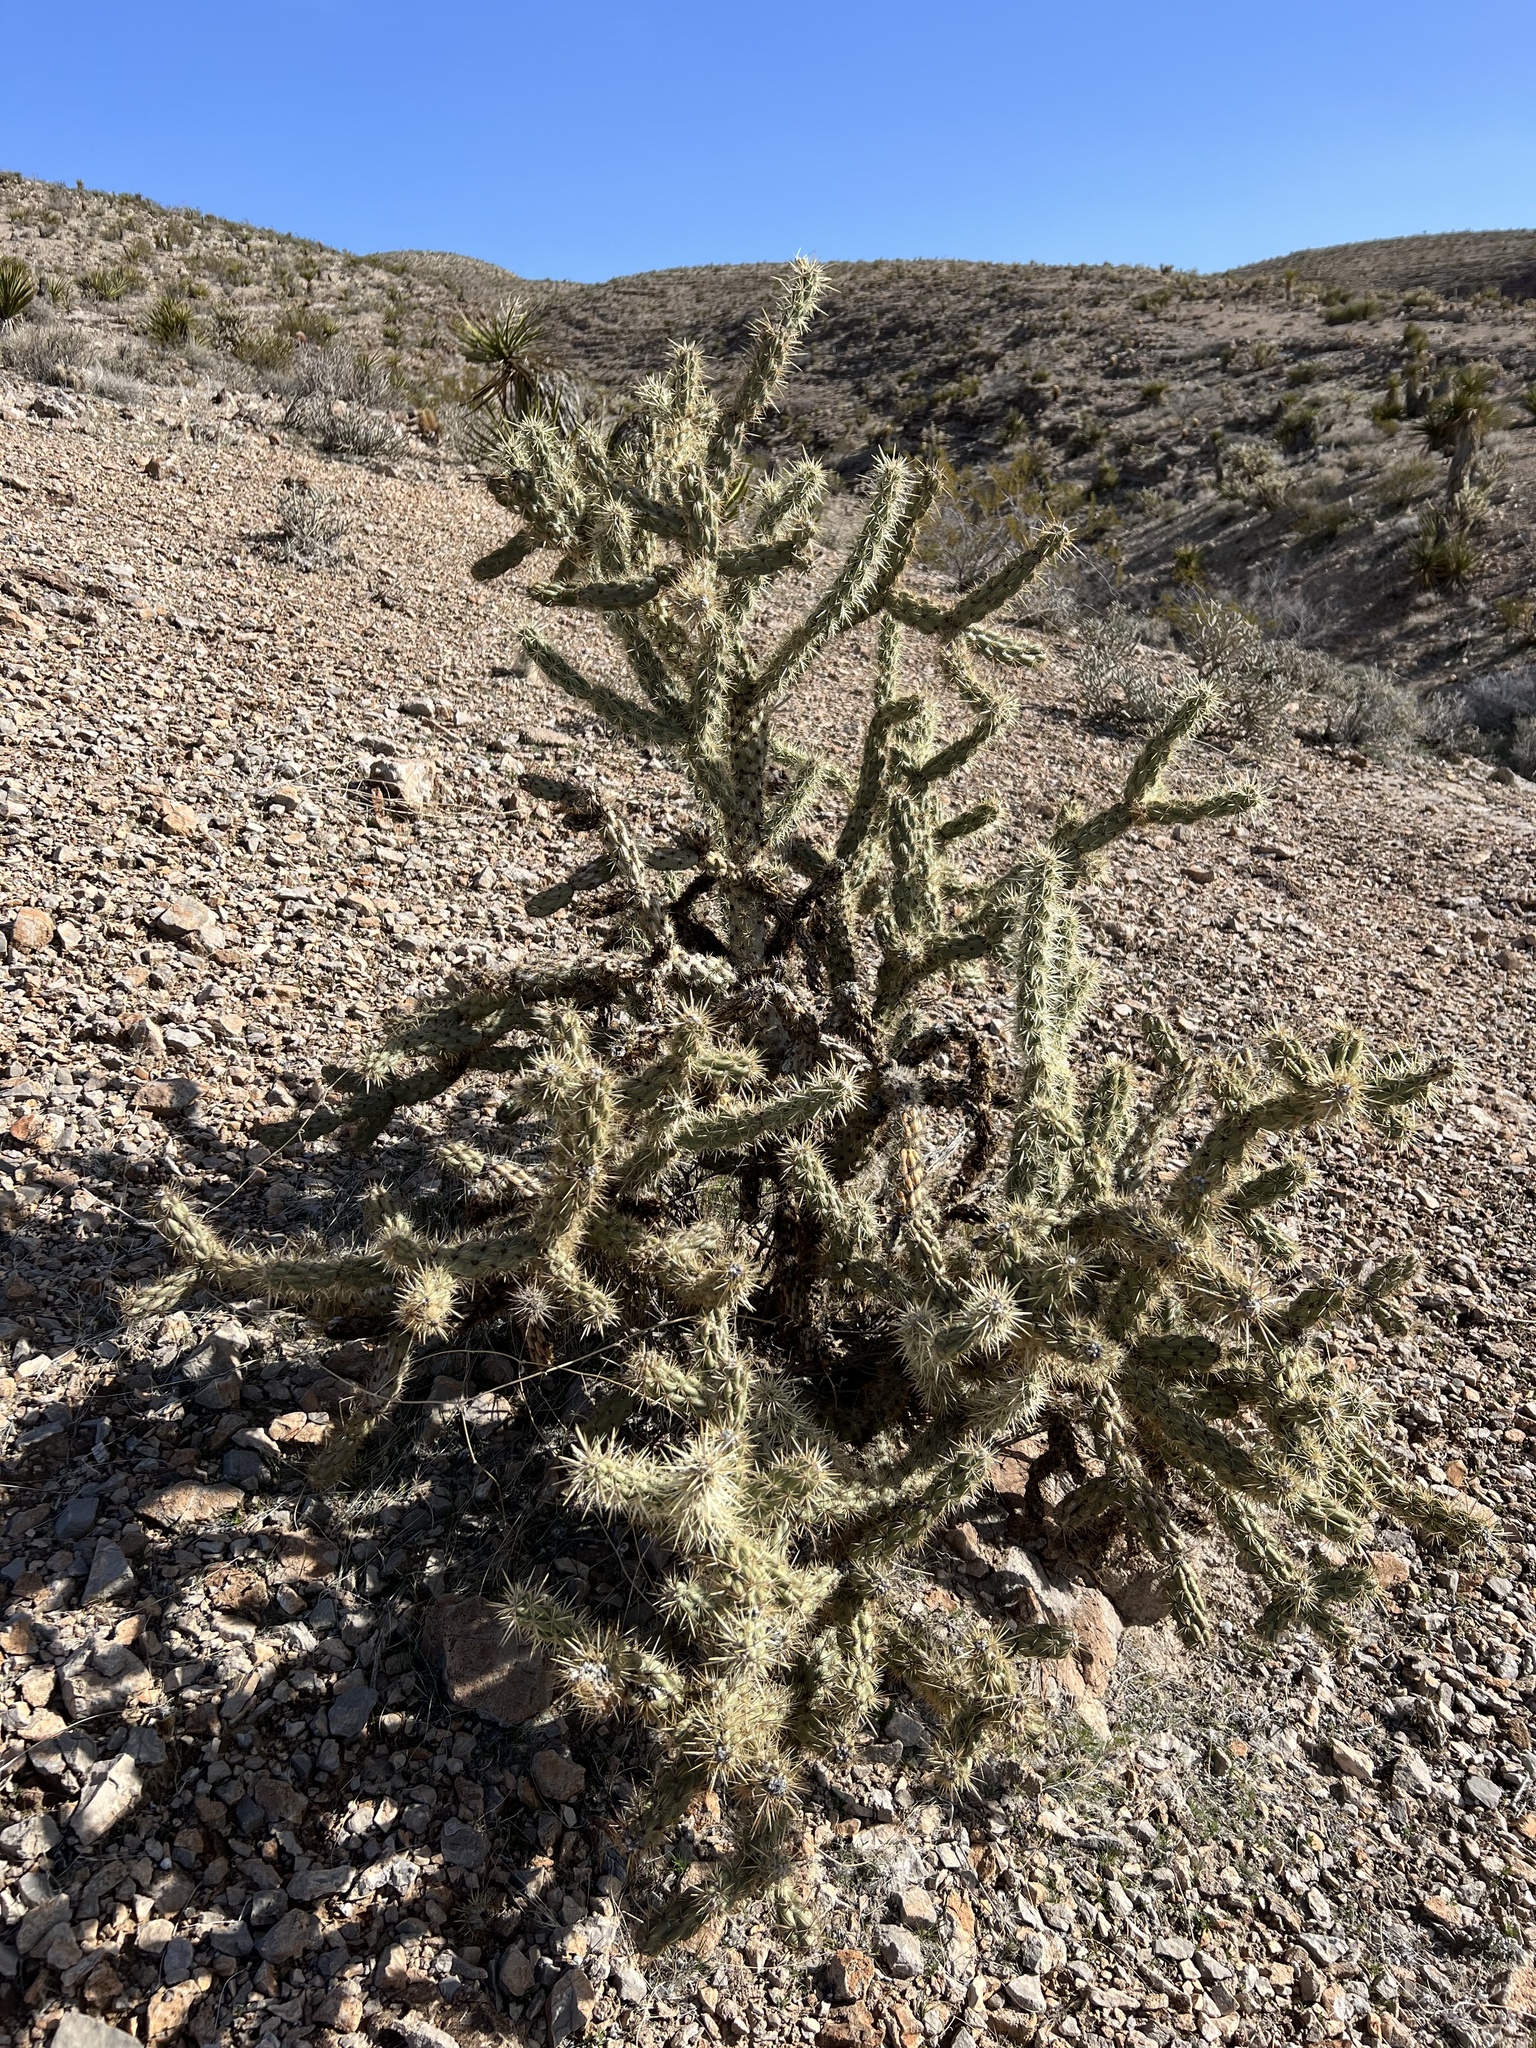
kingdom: Plantae
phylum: Tracheophyta
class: Magnoliopsida
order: Caryophyllales
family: Cactaceae
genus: Cylindropuntia
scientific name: Cylindropuntia acanthocarpa
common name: Buckhorn cholla
